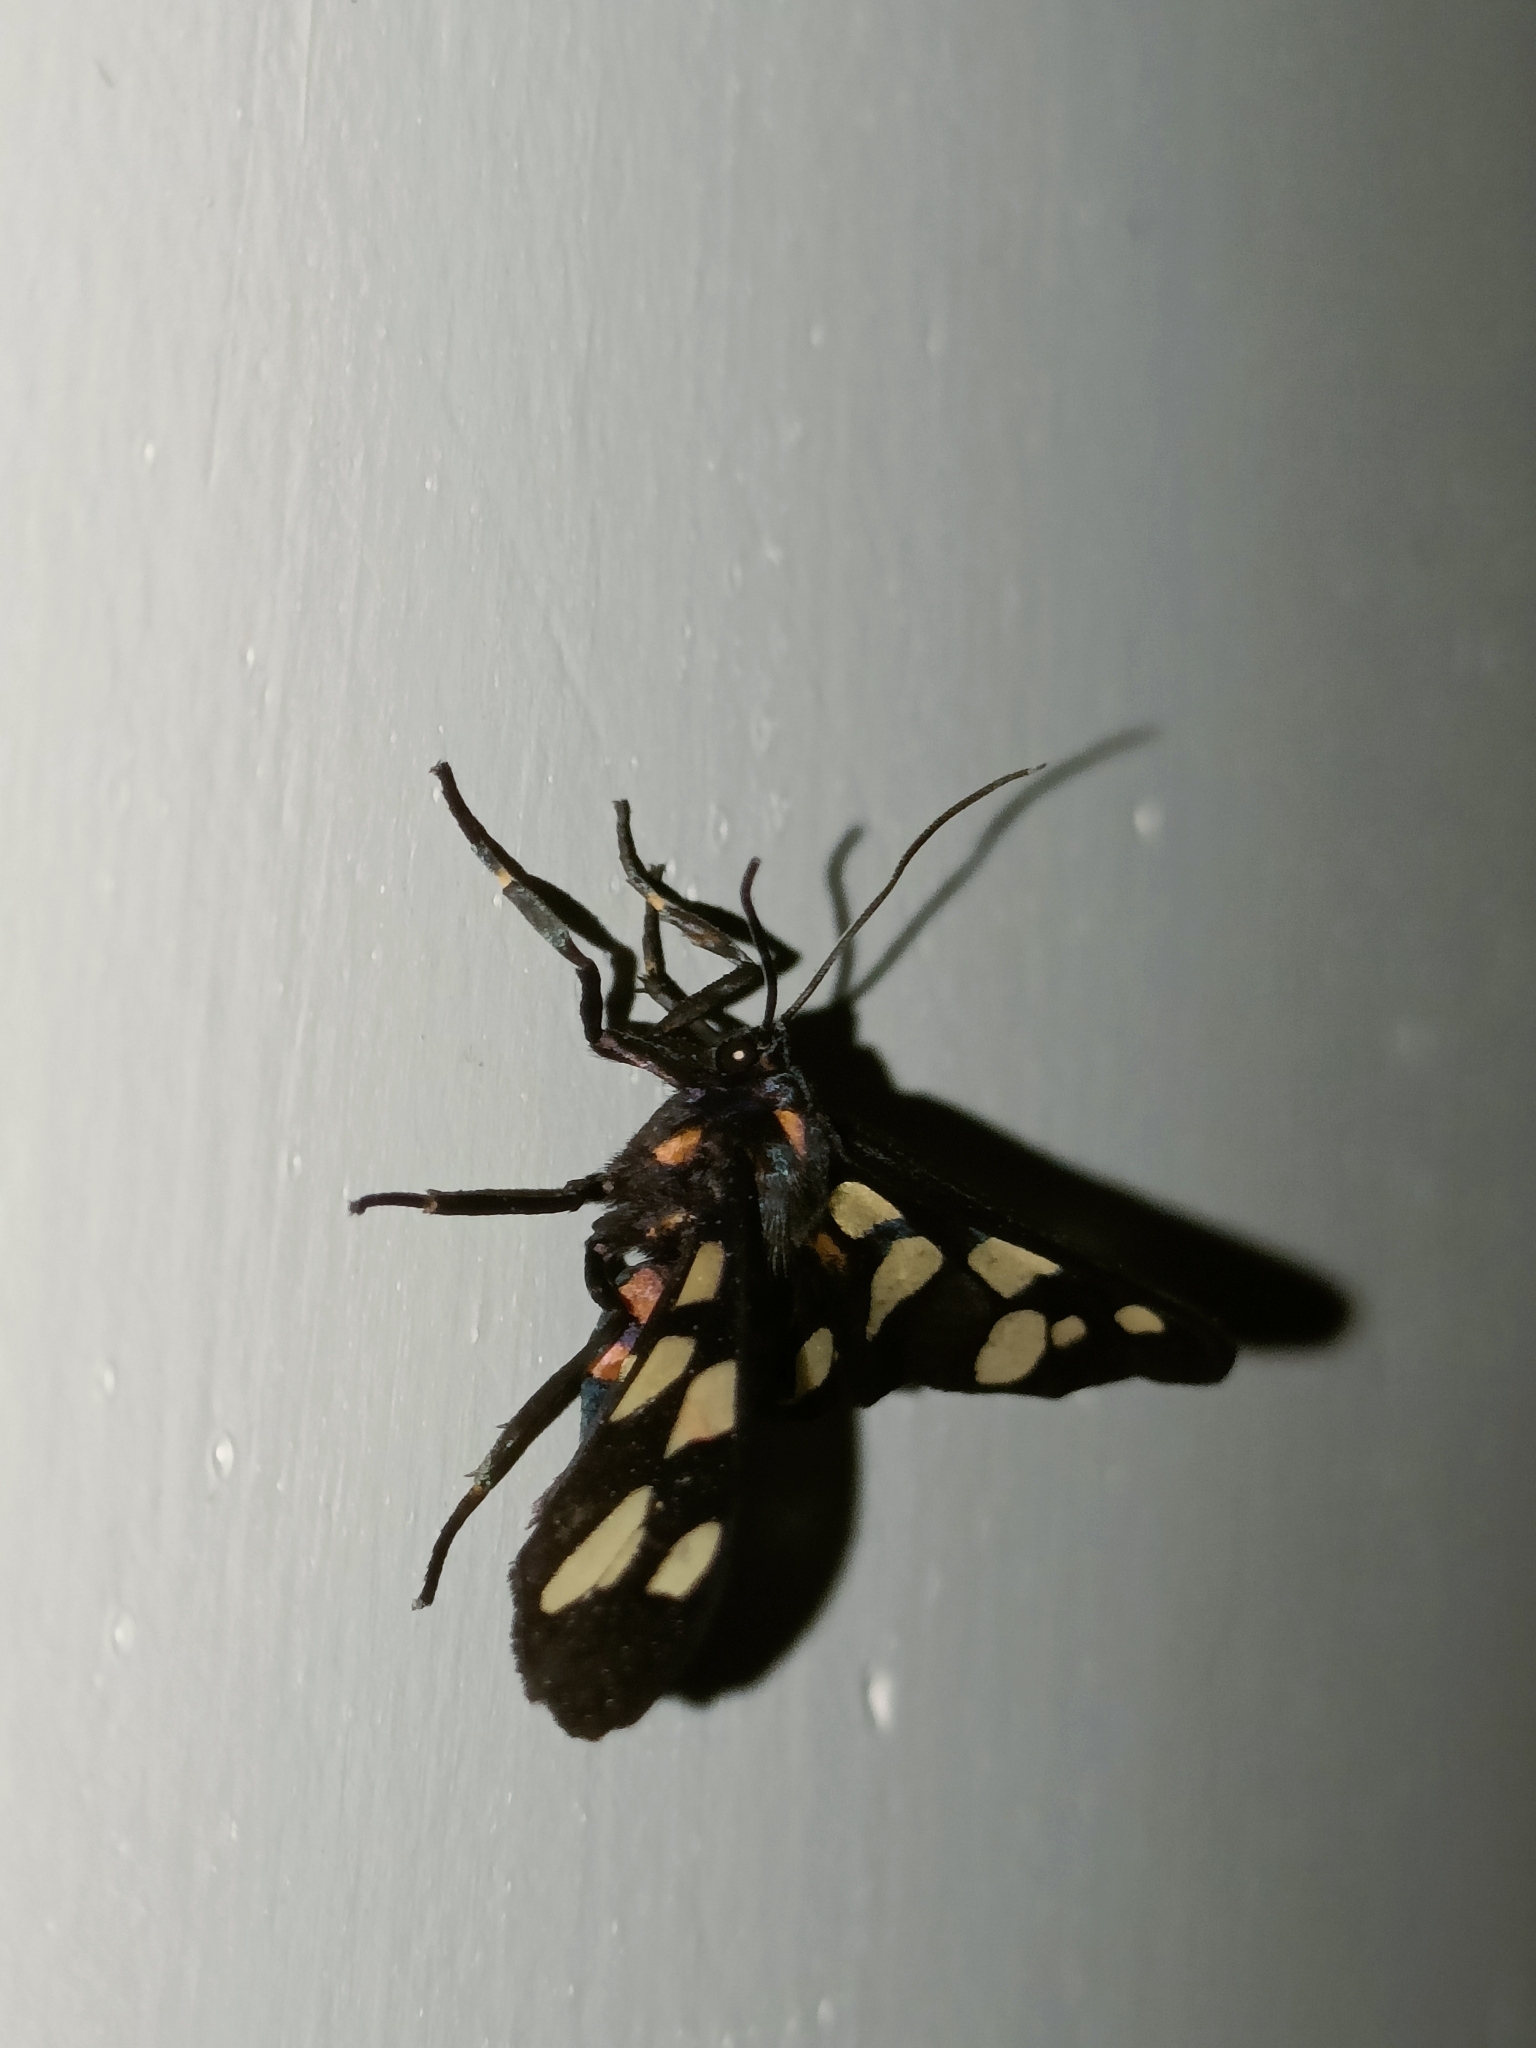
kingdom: Animalia
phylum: Arthropoda
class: Insecta
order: Lepidoptera
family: Erebidae
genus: Amata
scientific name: Amata passalis
